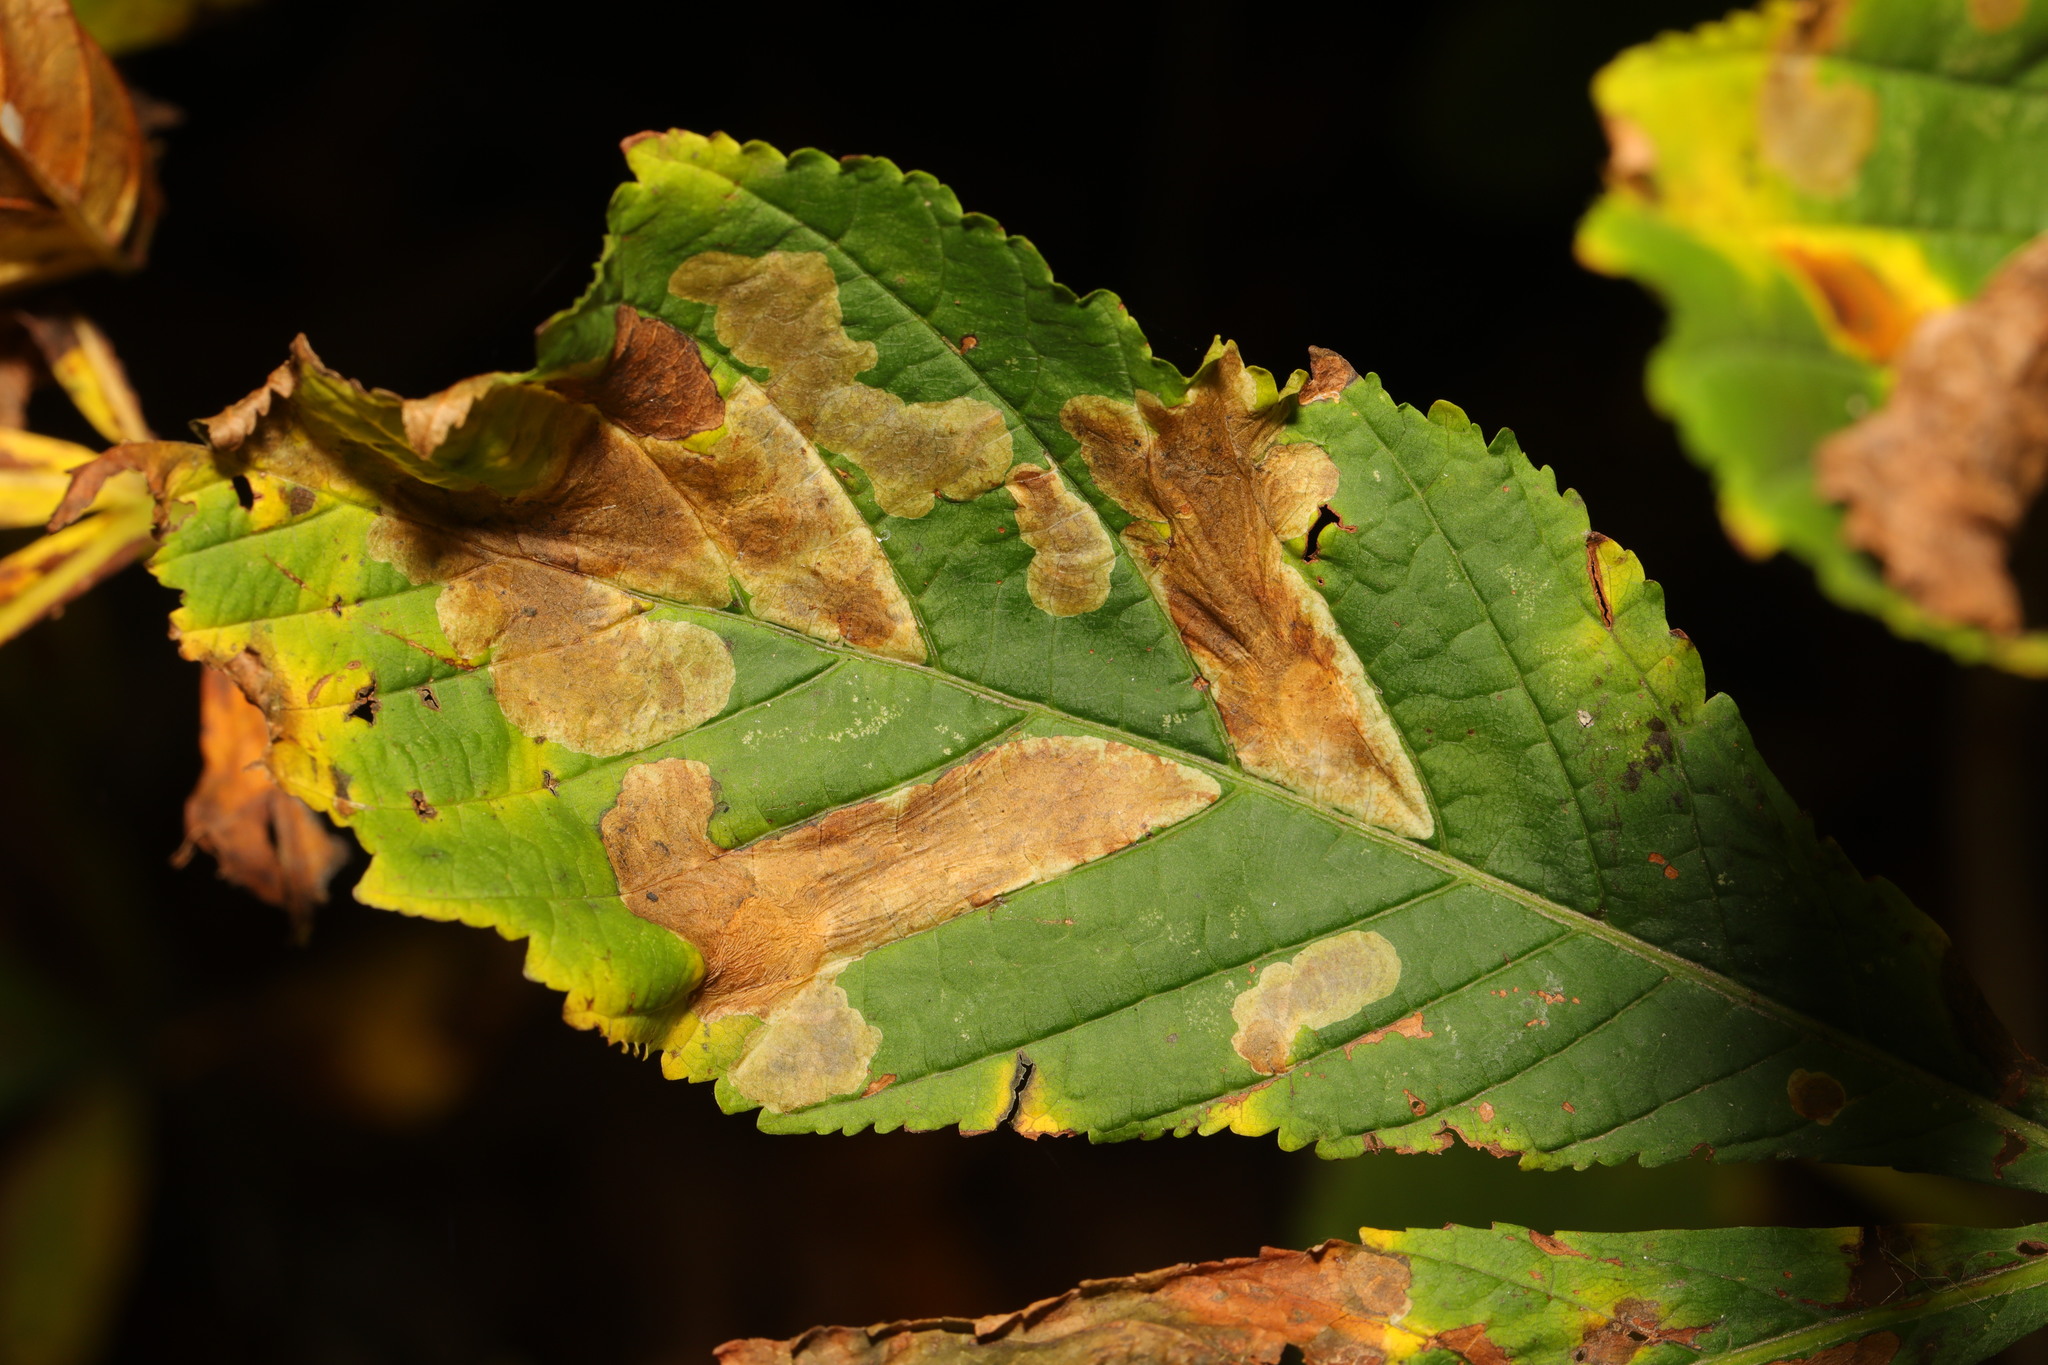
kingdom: Animalia
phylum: Arthropoda
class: Insecta
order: Lepidoptera
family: Gracillariidae
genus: Cameraria
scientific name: Cameraria ohridella
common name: Horse-chestnut leaf-miner
